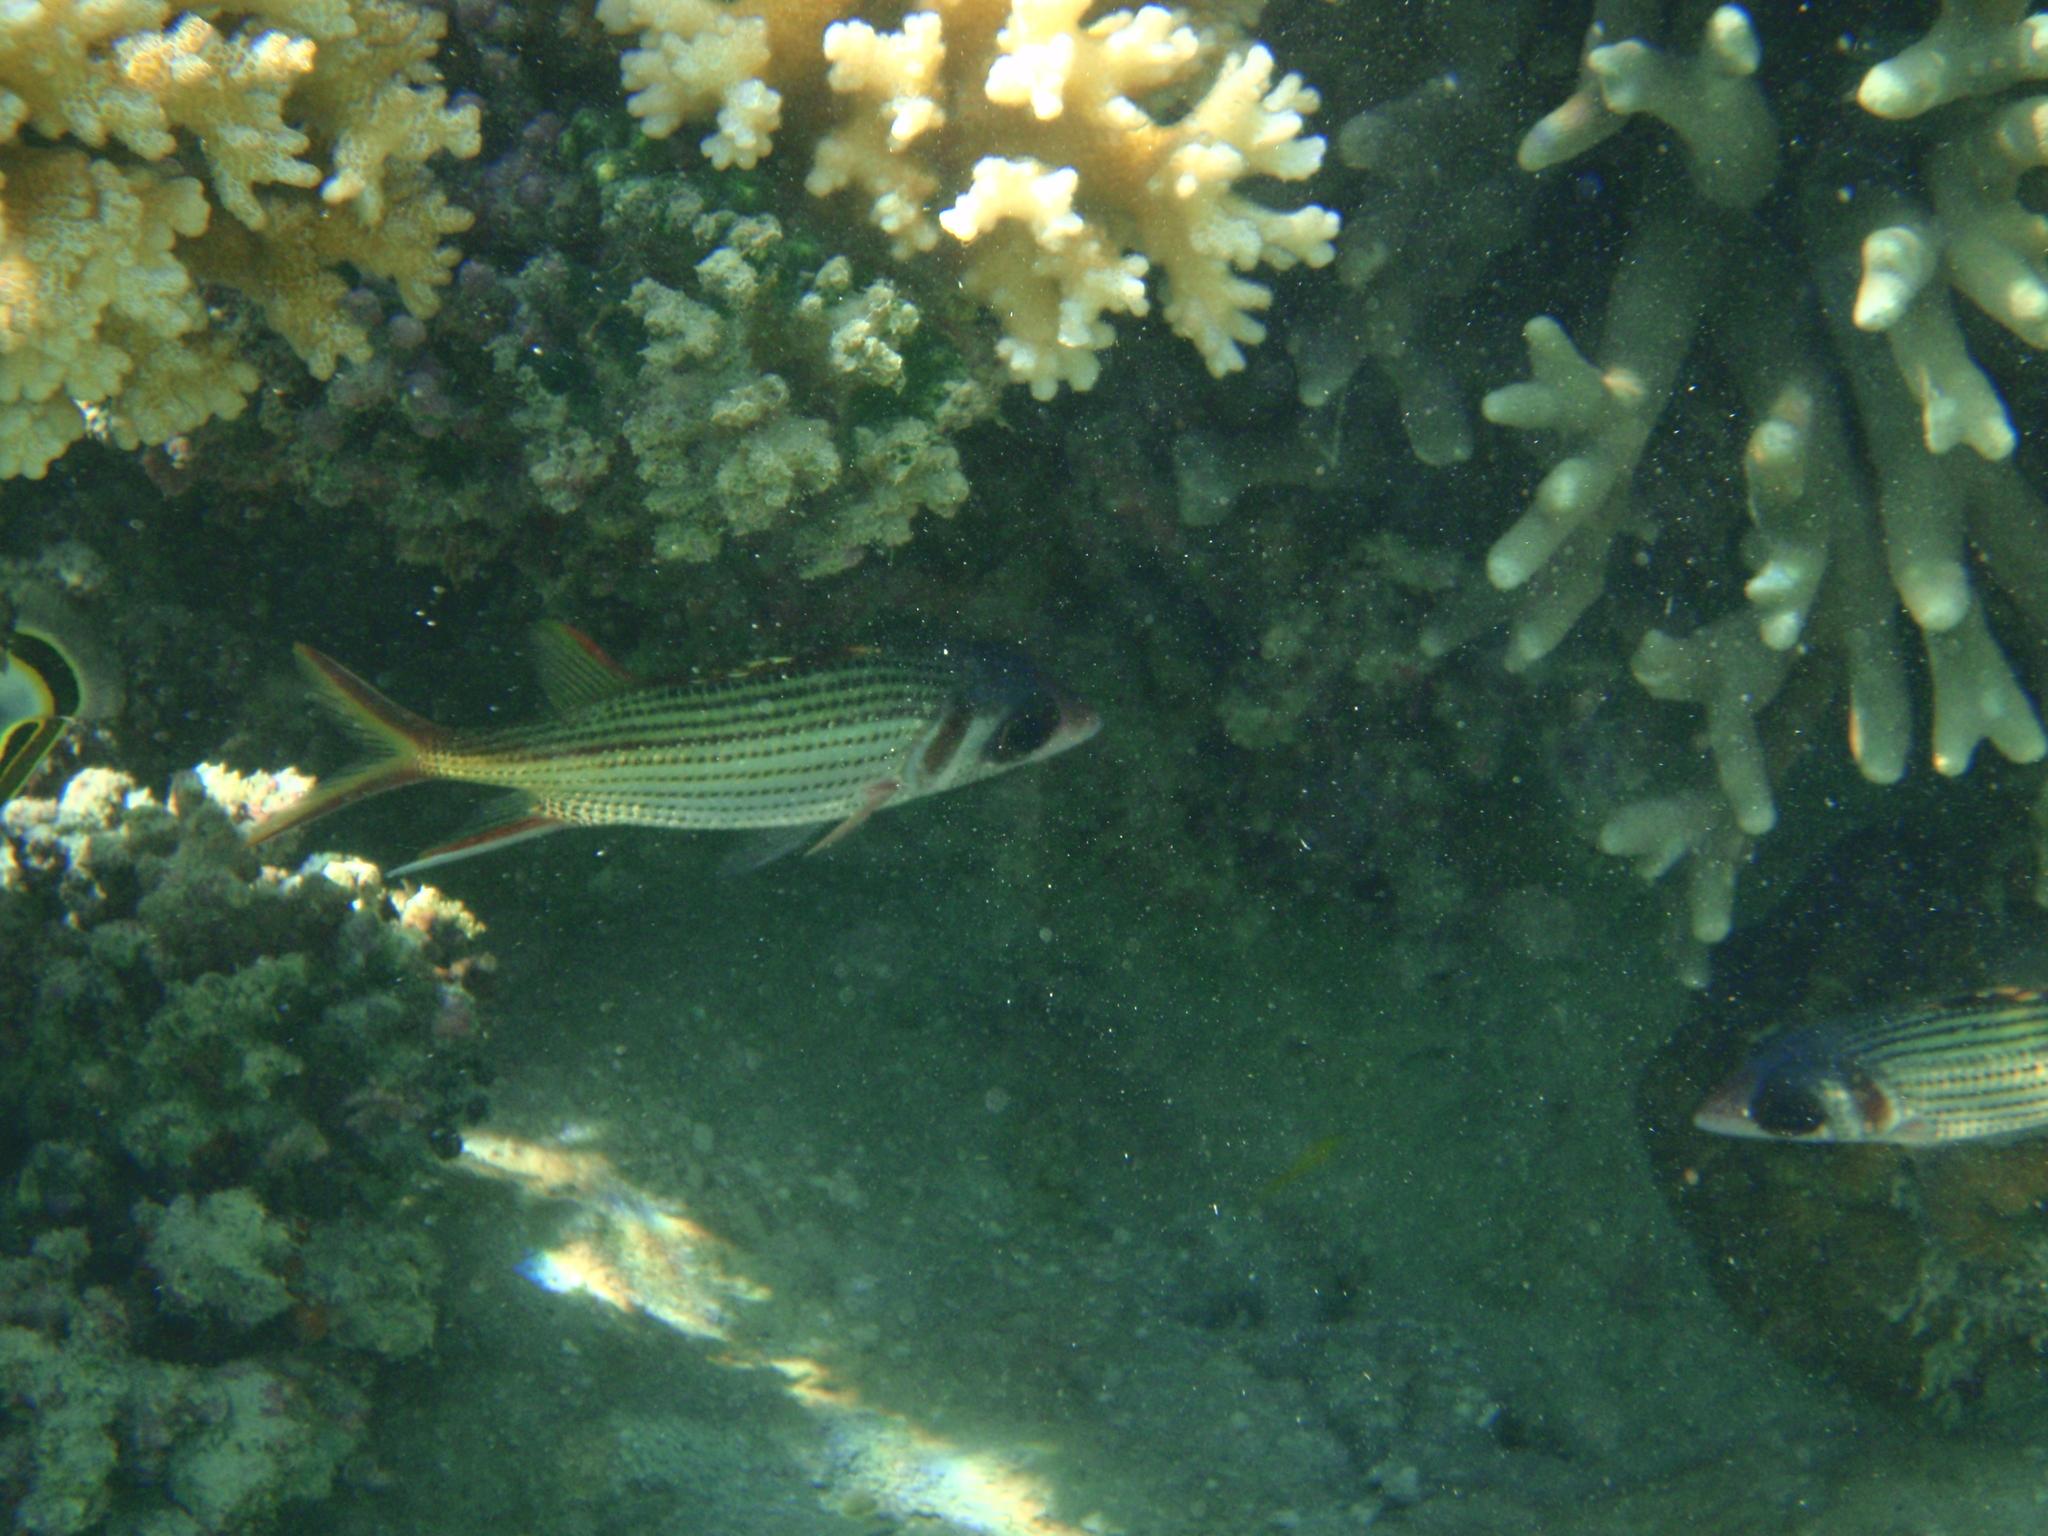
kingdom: Animalia
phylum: Chordata
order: Beryciformes
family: Holocentridae
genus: Neoniphon
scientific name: Neoniphon sammara
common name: Sammara squirrelfish
